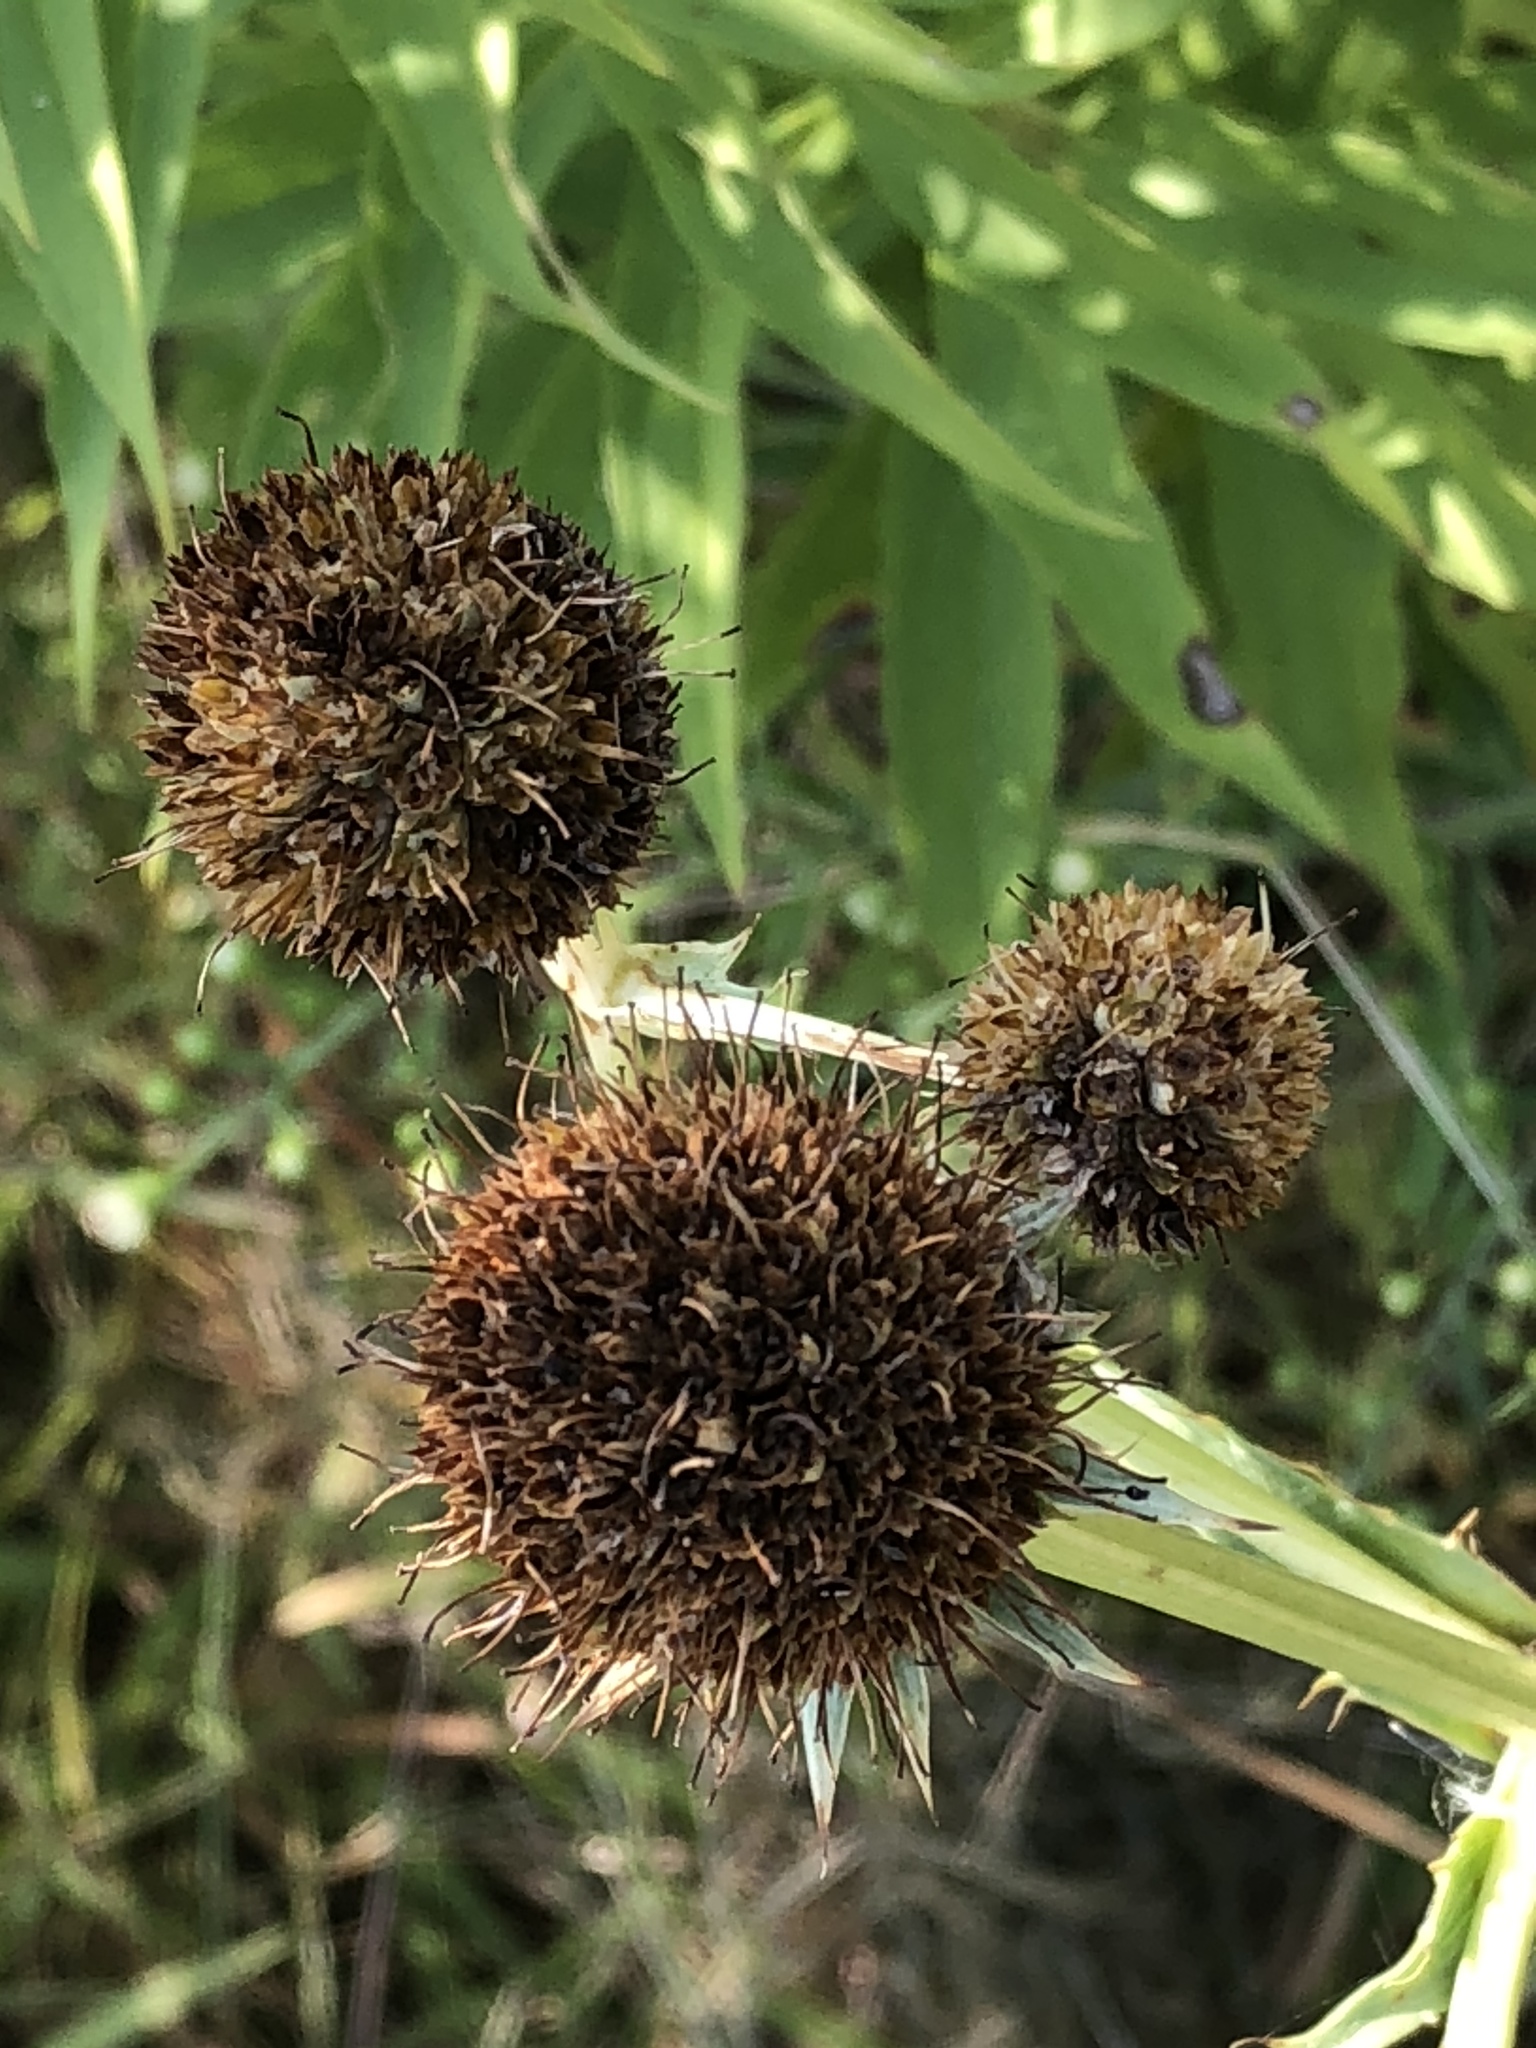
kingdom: Plantae
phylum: Tracheophyta
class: Magnoliopsida
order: Apiales
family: Apiaceae
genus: Eryngium
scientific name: Eryngium yuccifolium
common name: Button eryngo
